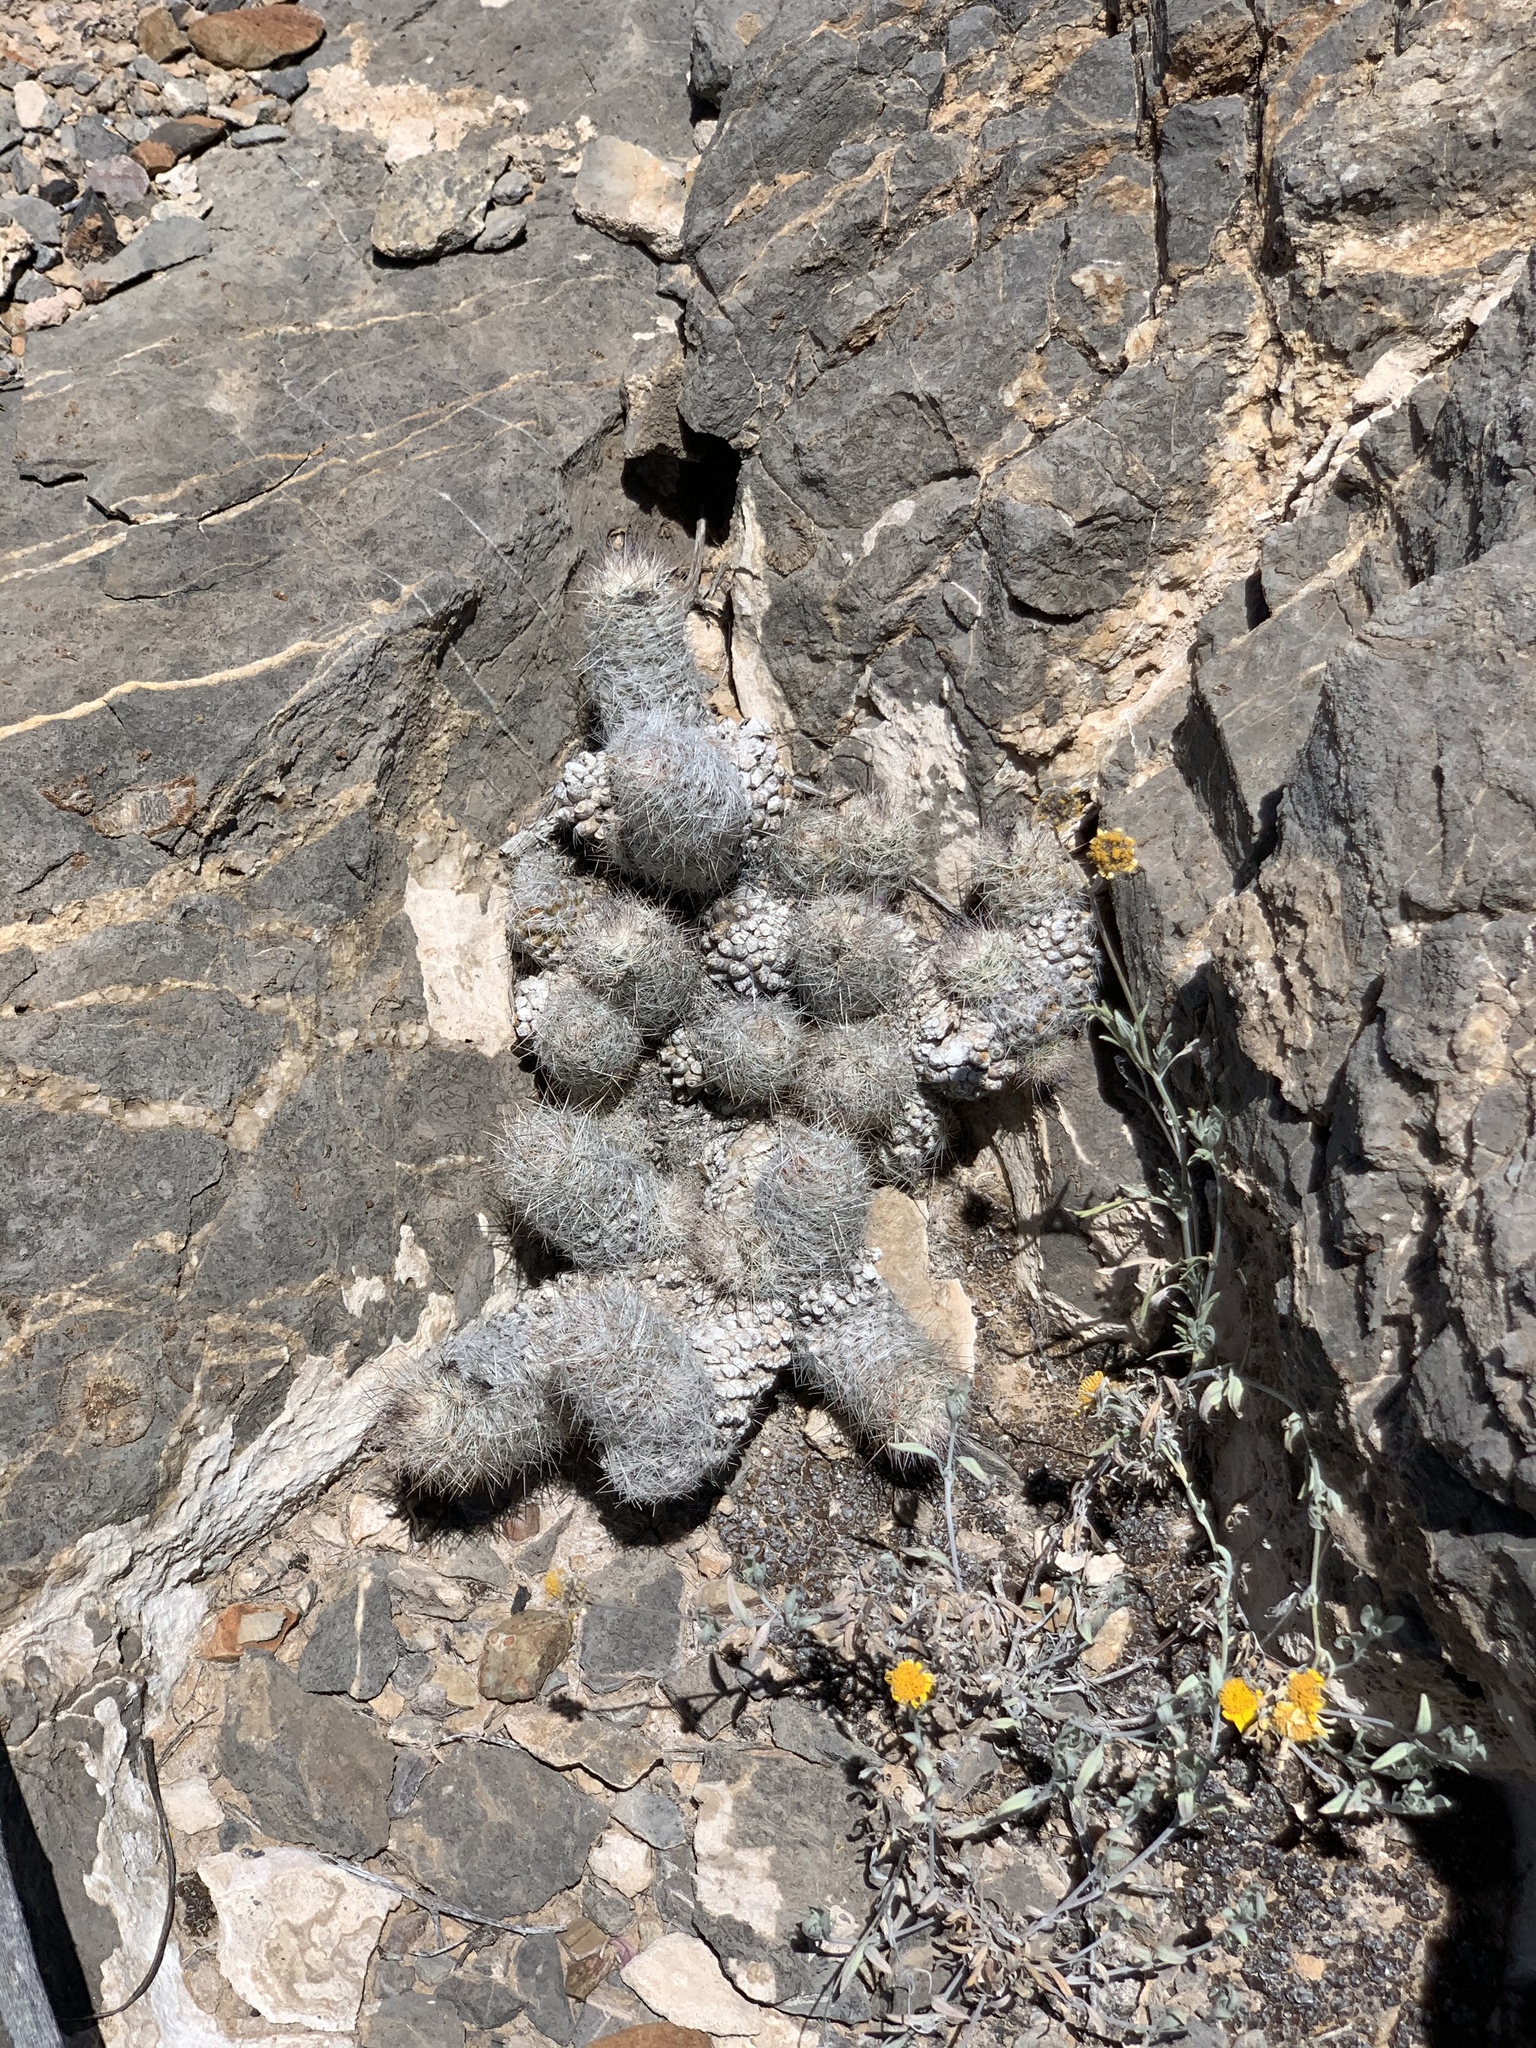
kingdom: Plantae
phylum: Tracheophyta
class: Magnoliopsida
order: Caryophyllales
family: Cactaceae
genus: Pelecyphora
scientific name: Pelecyphora tuberculosa
